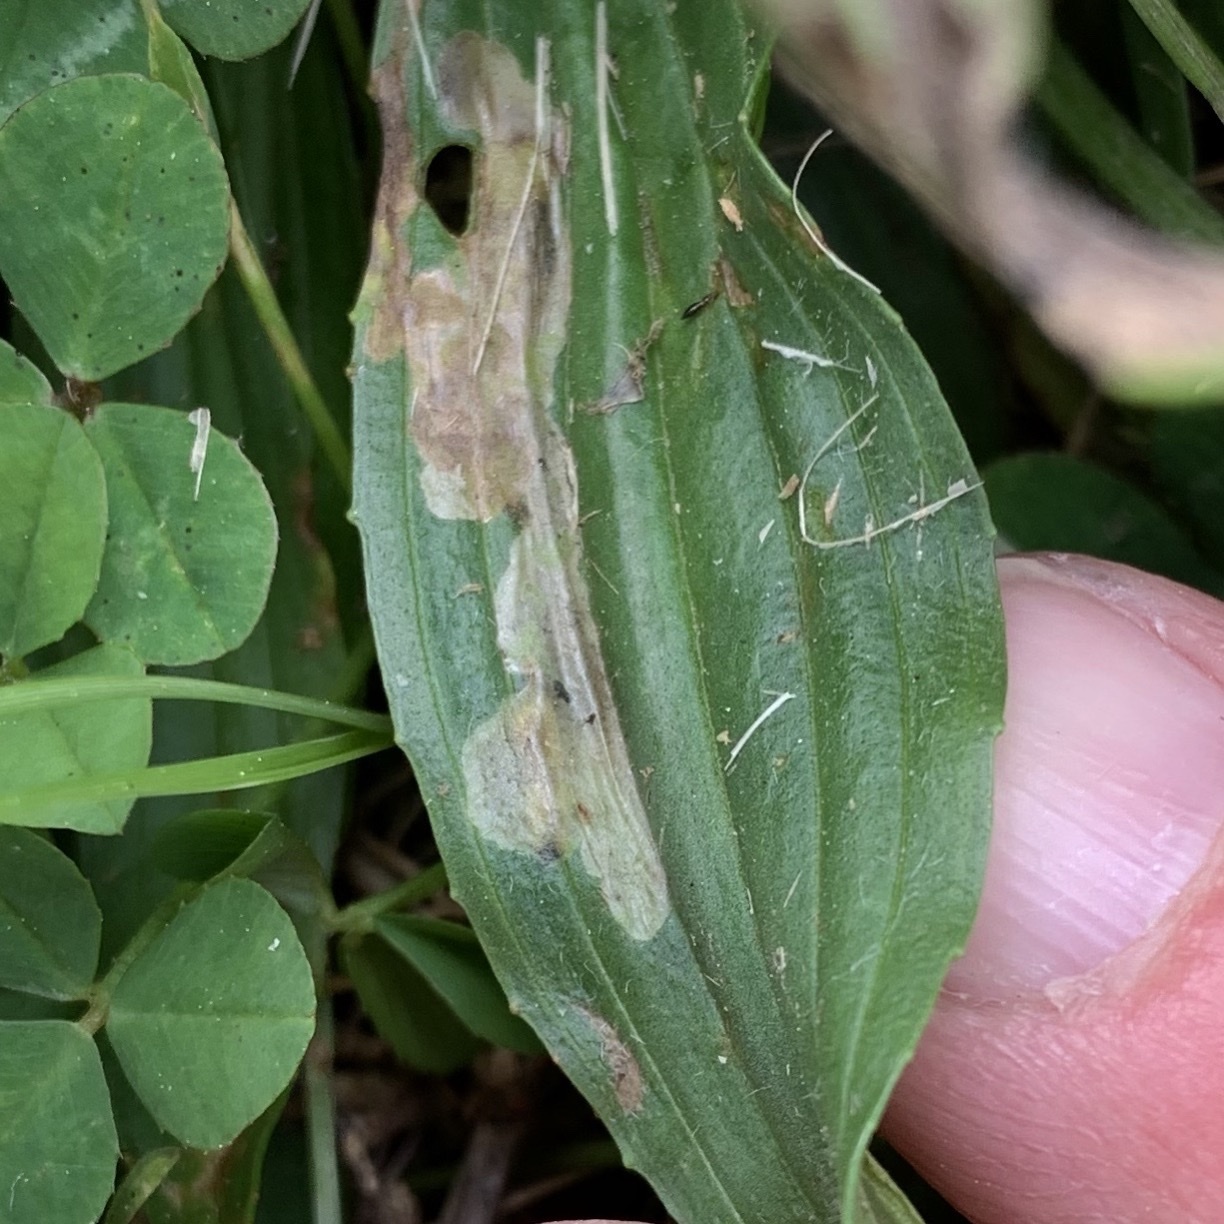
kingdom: Animalia
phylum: Arthropoda
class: Insecta
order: Coleoptera
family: Chrysomelidae
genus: Dibolia
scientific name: Dibolia borealis
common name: Northern plantain flea beetle
